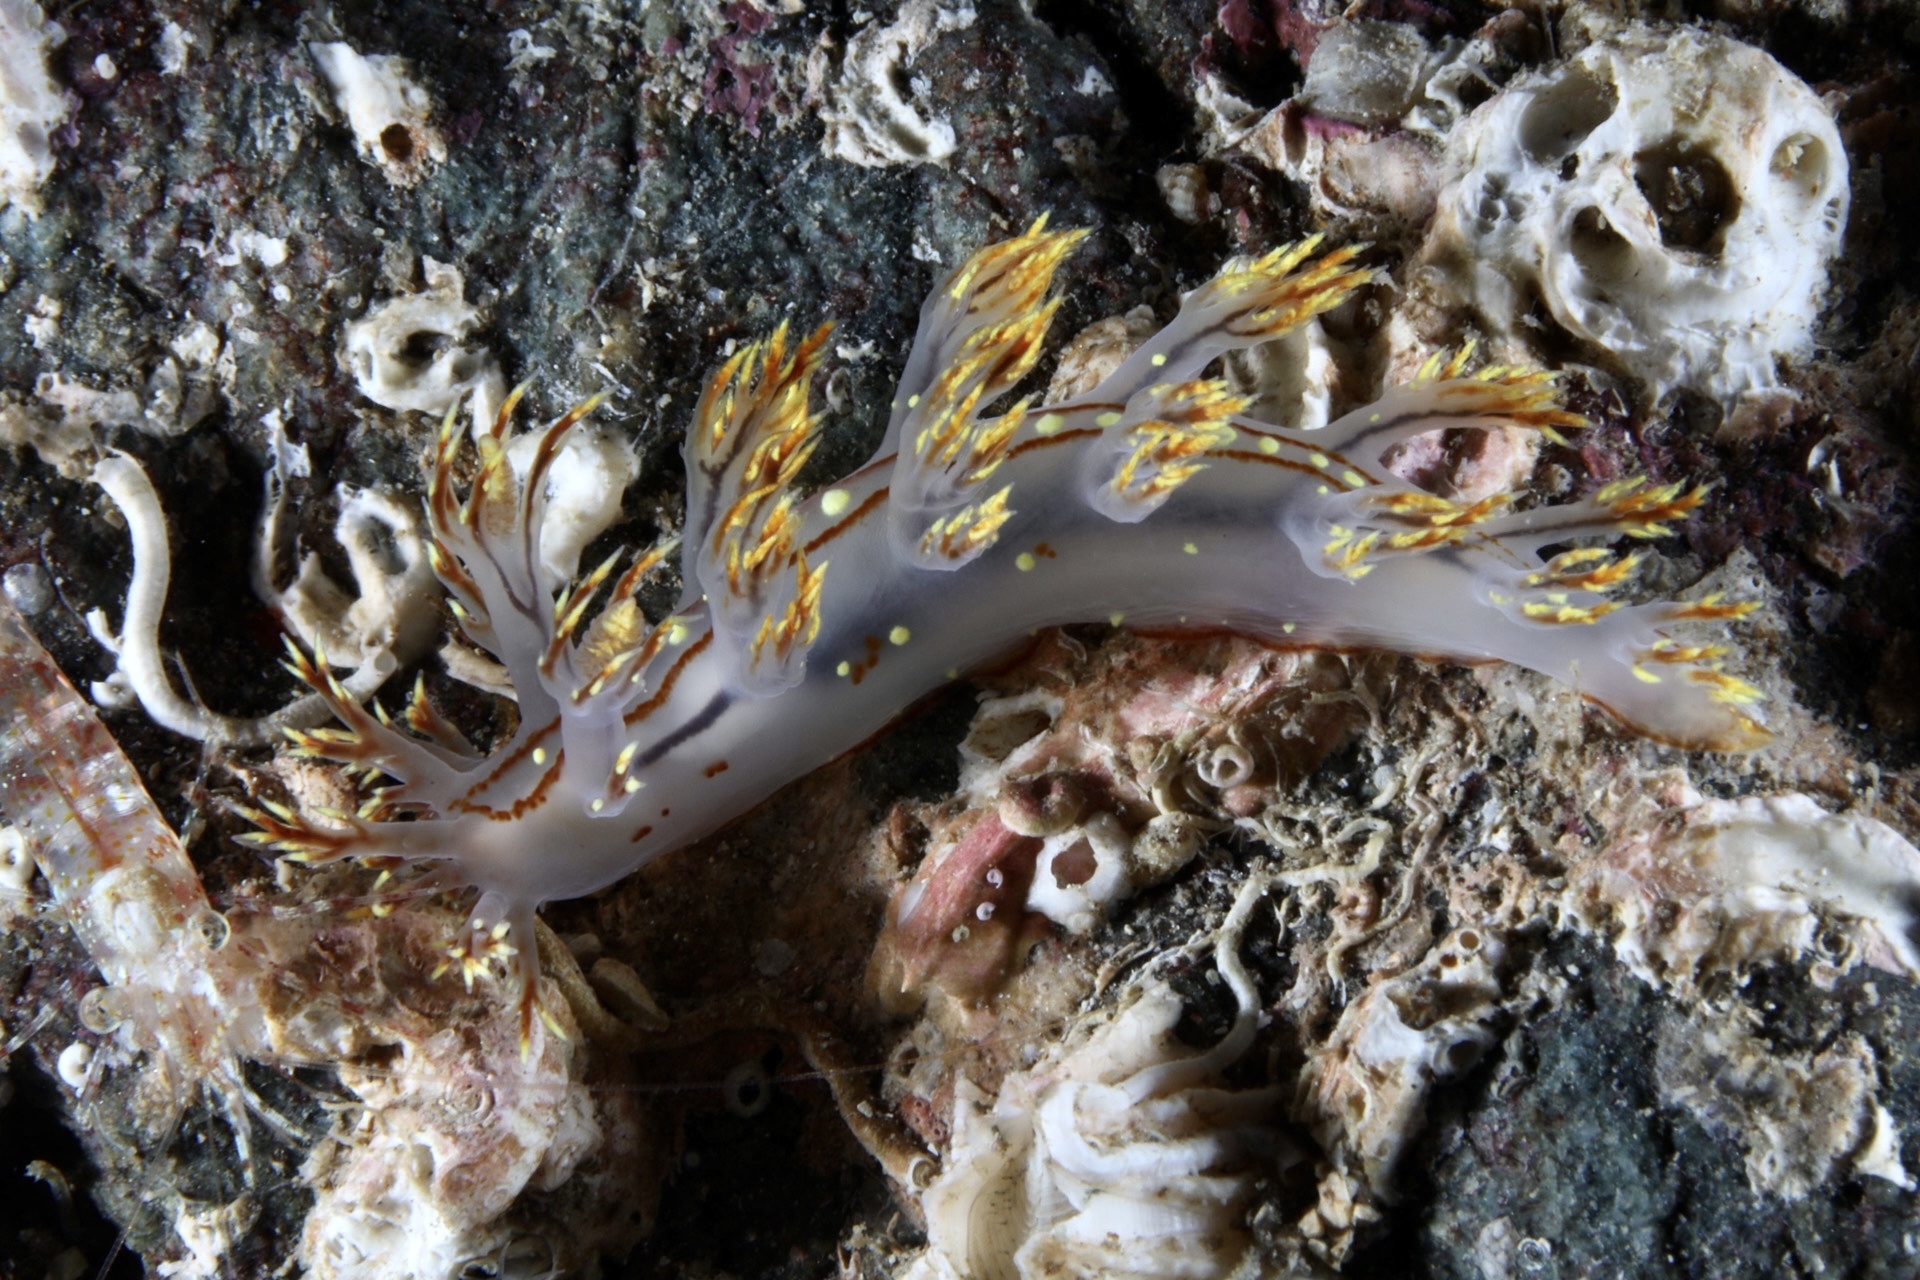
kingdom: Animalia
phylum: Mollusca
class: Gastropoda
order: Nudibranchia
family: Dendronotidae
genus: Dendronotus
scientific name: Dendronotus yrjargul
